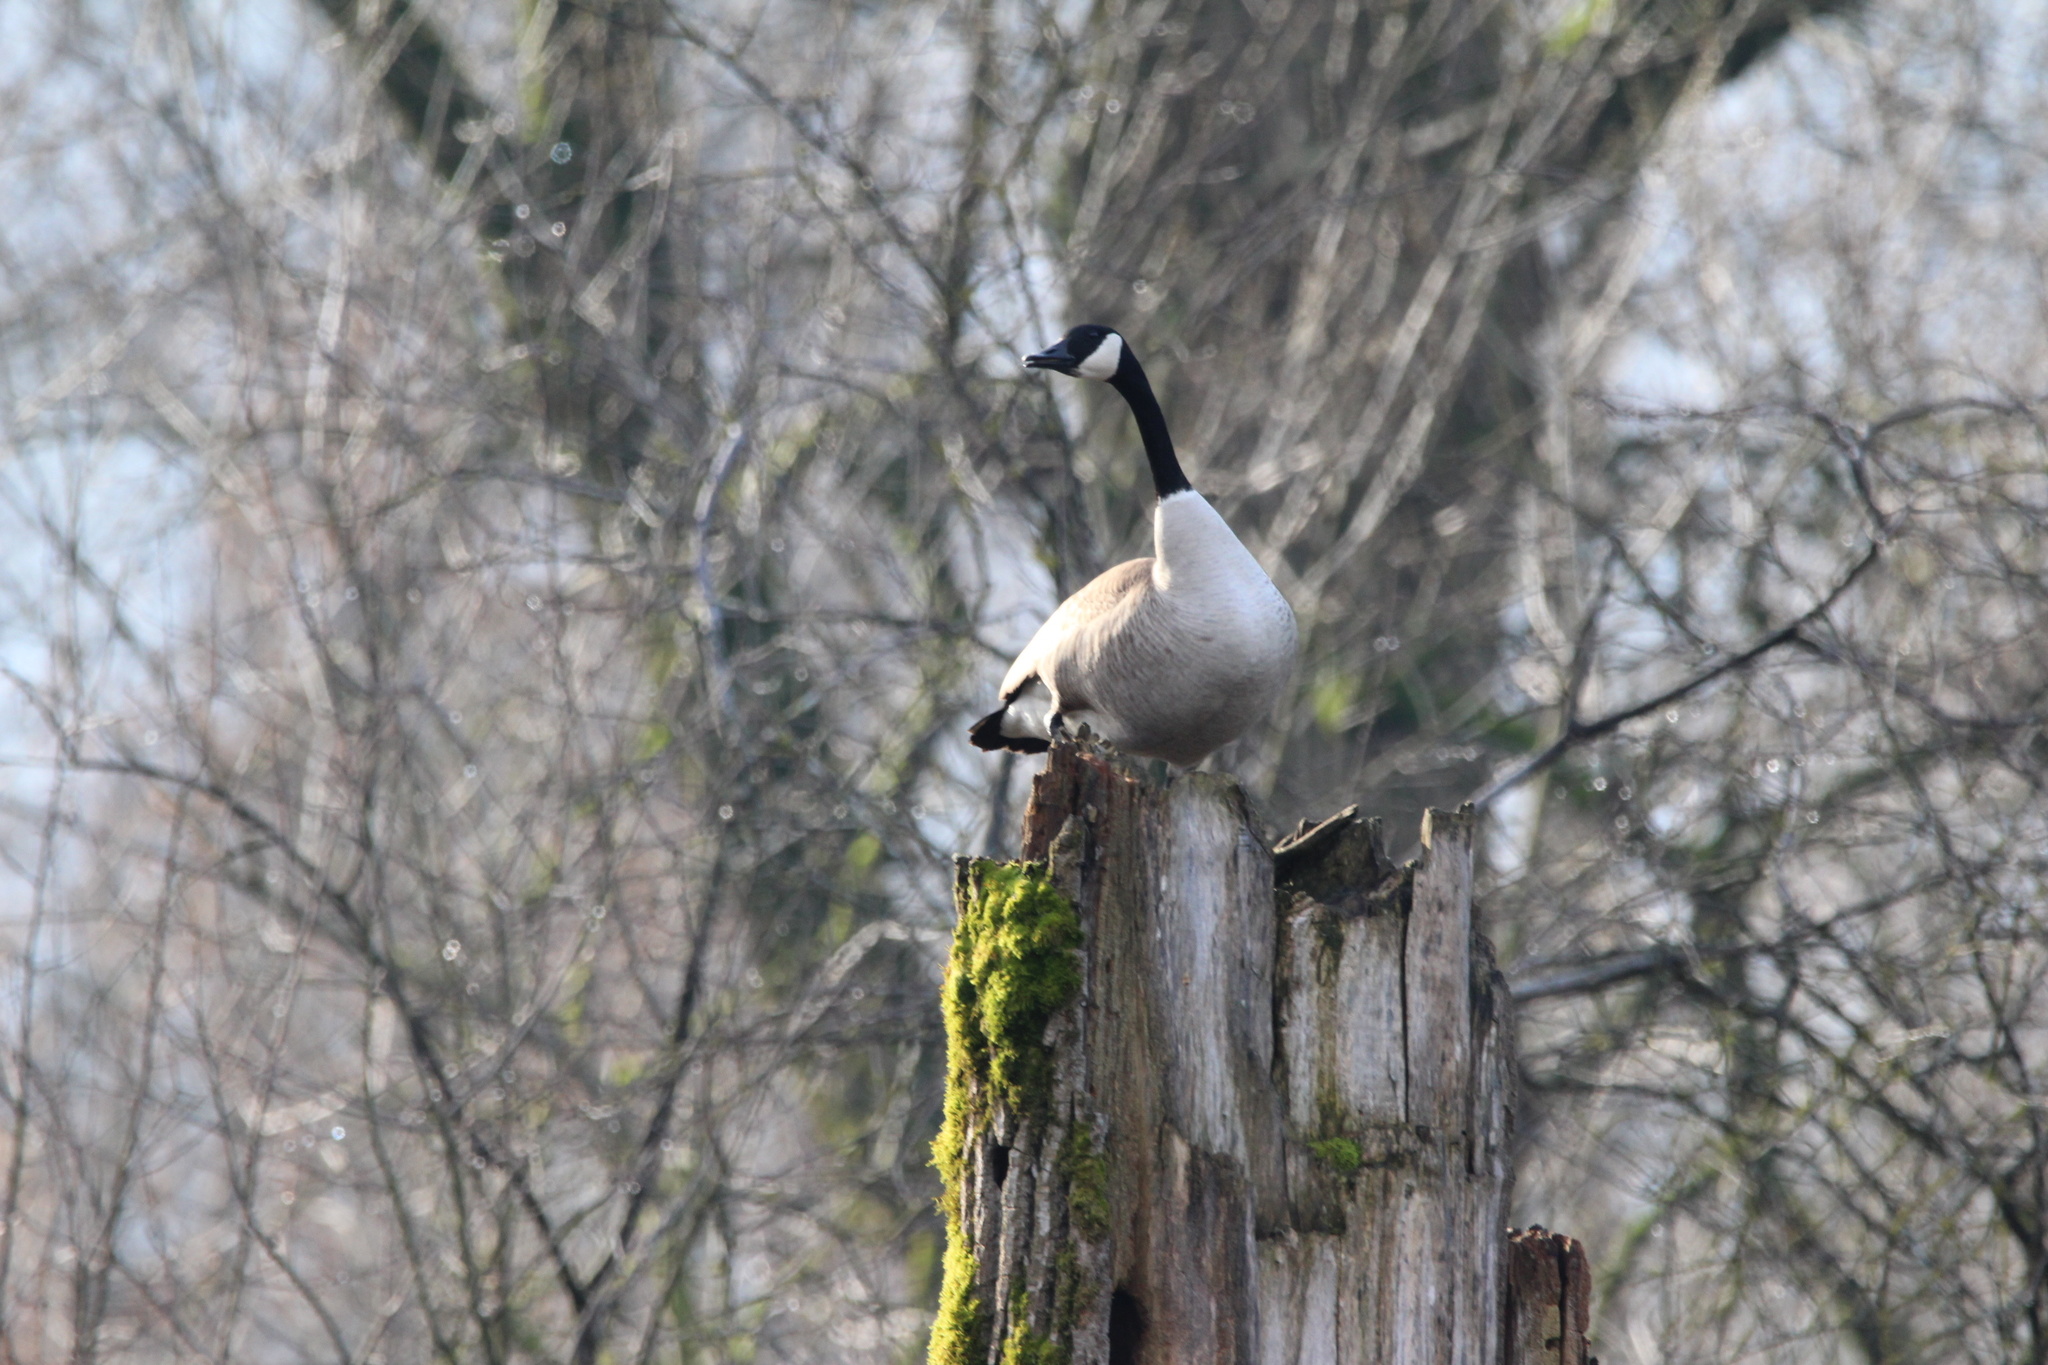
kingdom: Animalia
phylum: Chordata
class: Aves
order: Anseriformes
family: Anatidae
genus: Branta
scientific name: Branta canadensis
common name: Canada goose
